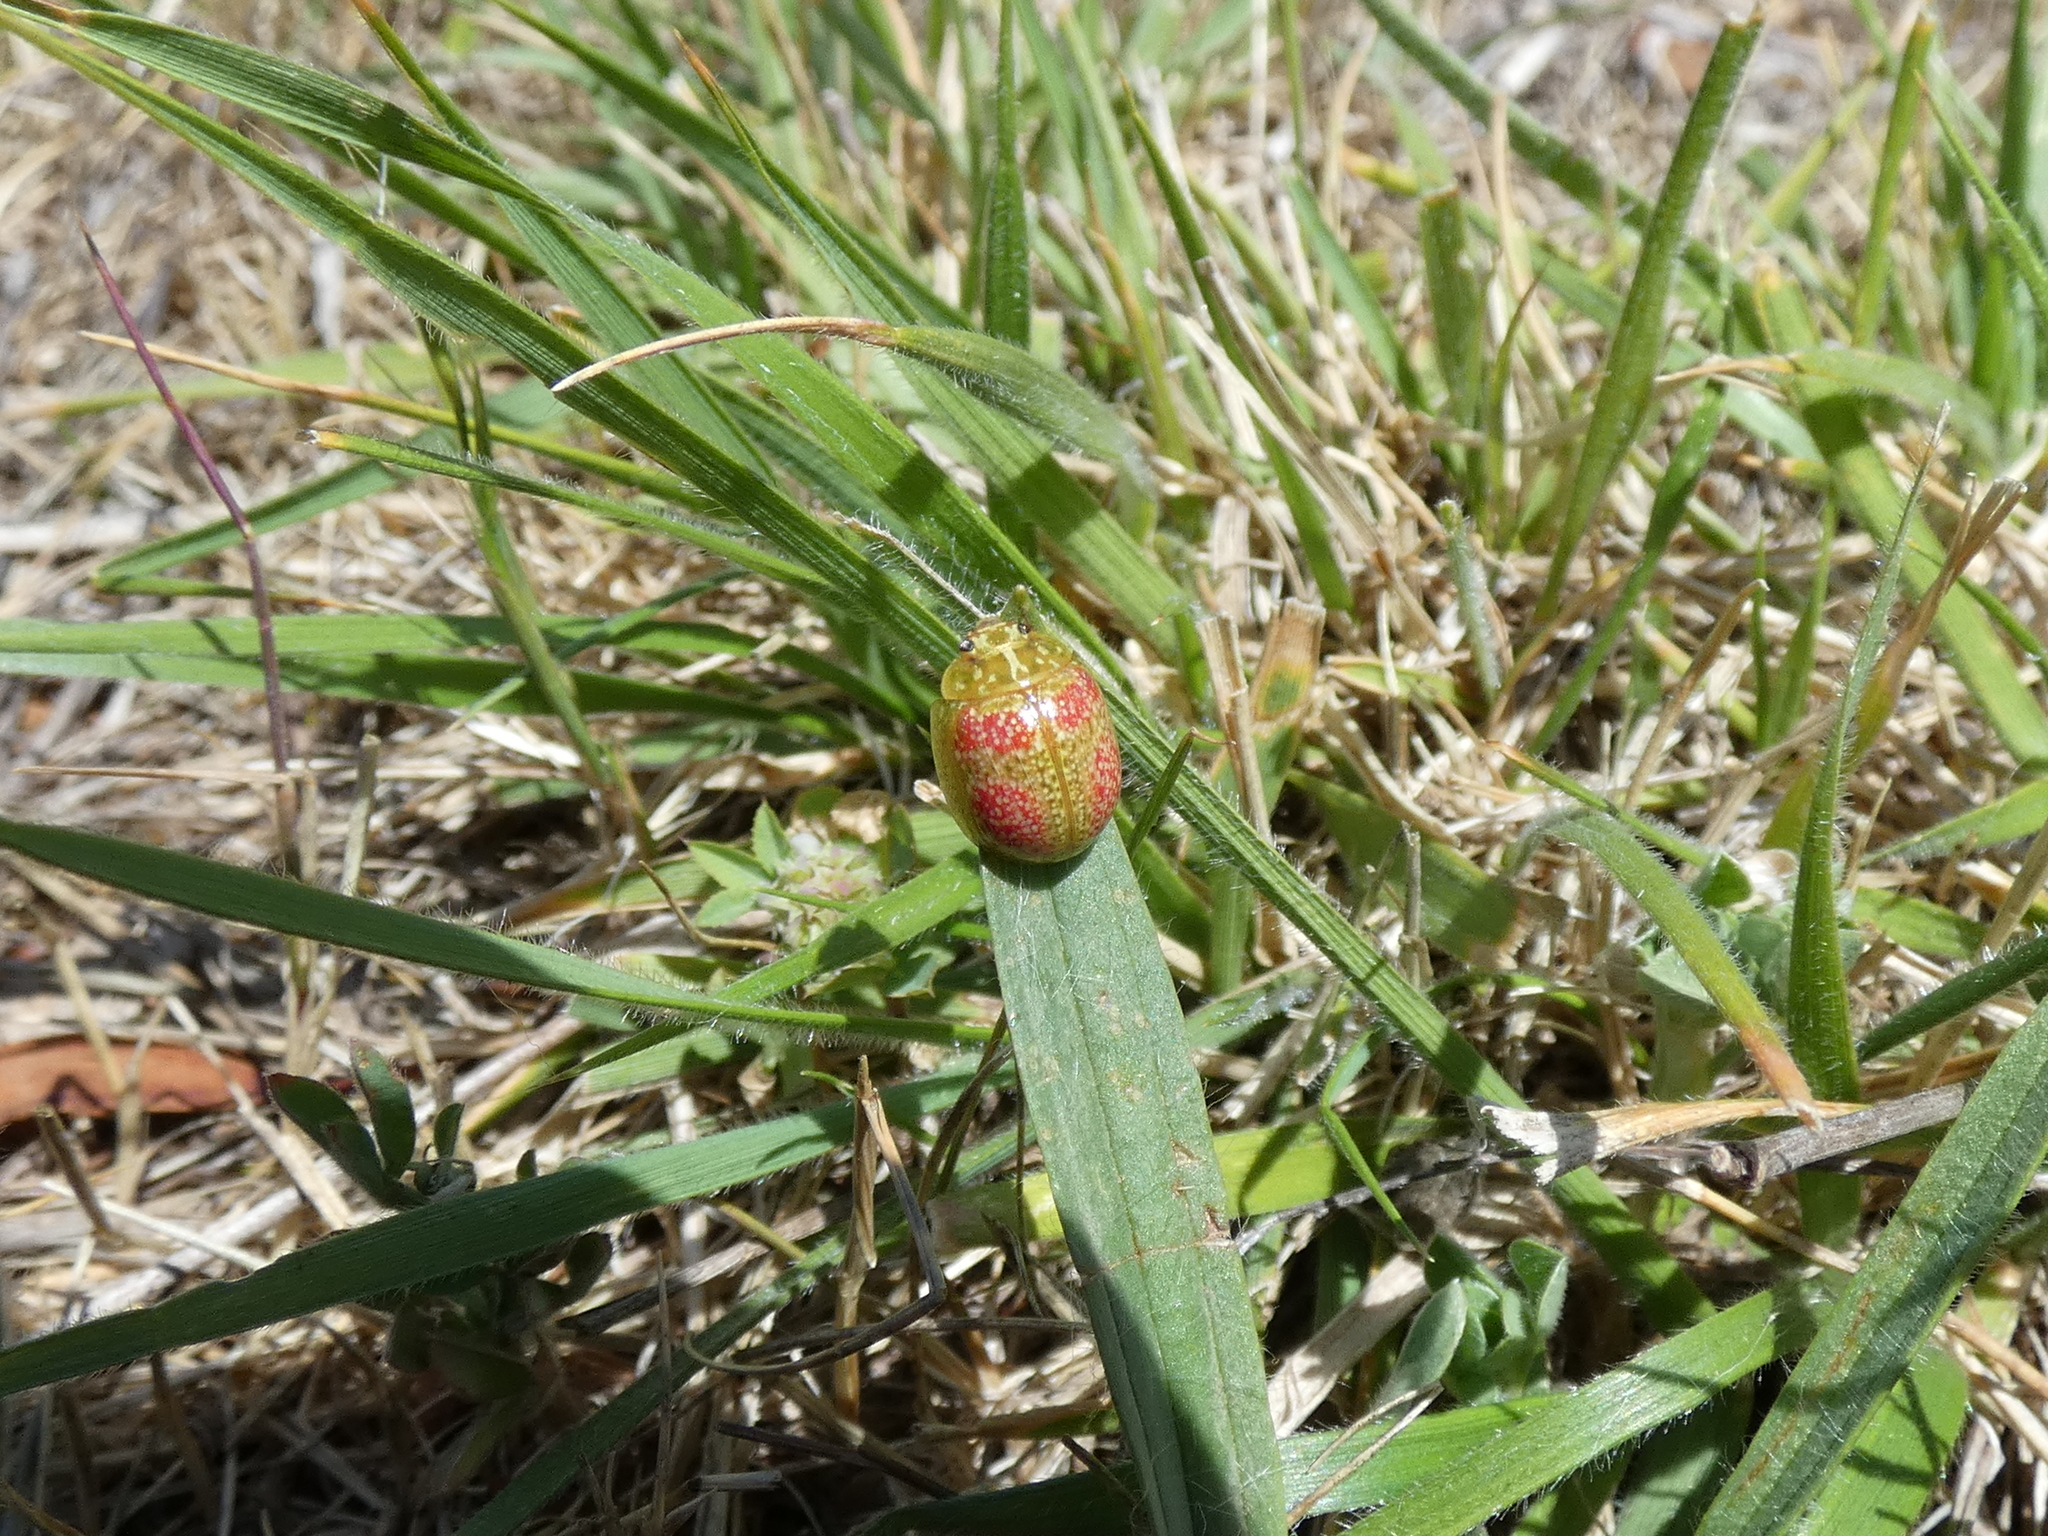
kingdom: Animalia
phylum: Arthropoda
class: Insecta
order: Coleoptera
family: Chrysomelidae
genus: Paropsisterna
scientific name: Paropsisterna
